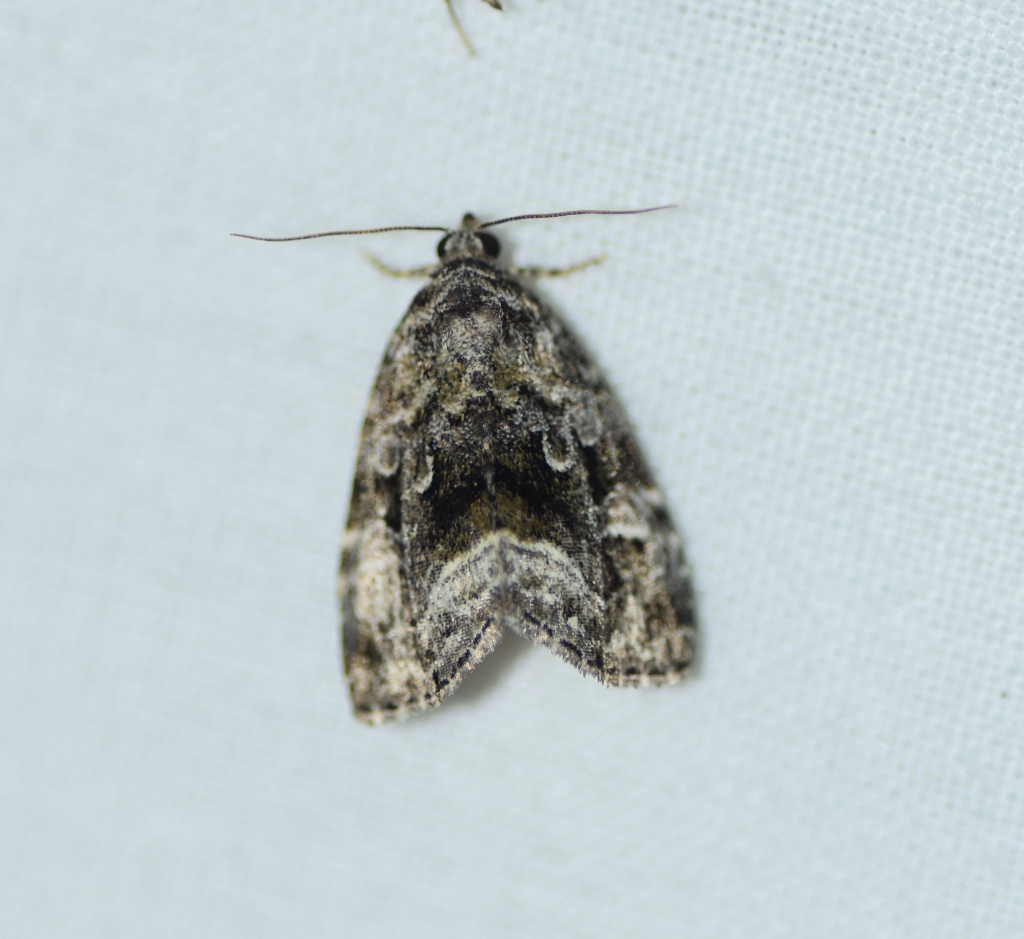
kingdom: Animalia
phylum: Arthropoda
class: Insecta
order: Lepidoptera
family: Noctuidae
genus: Protodeltote
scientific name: Protodeltote muscosula
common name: Large mossy glyph
